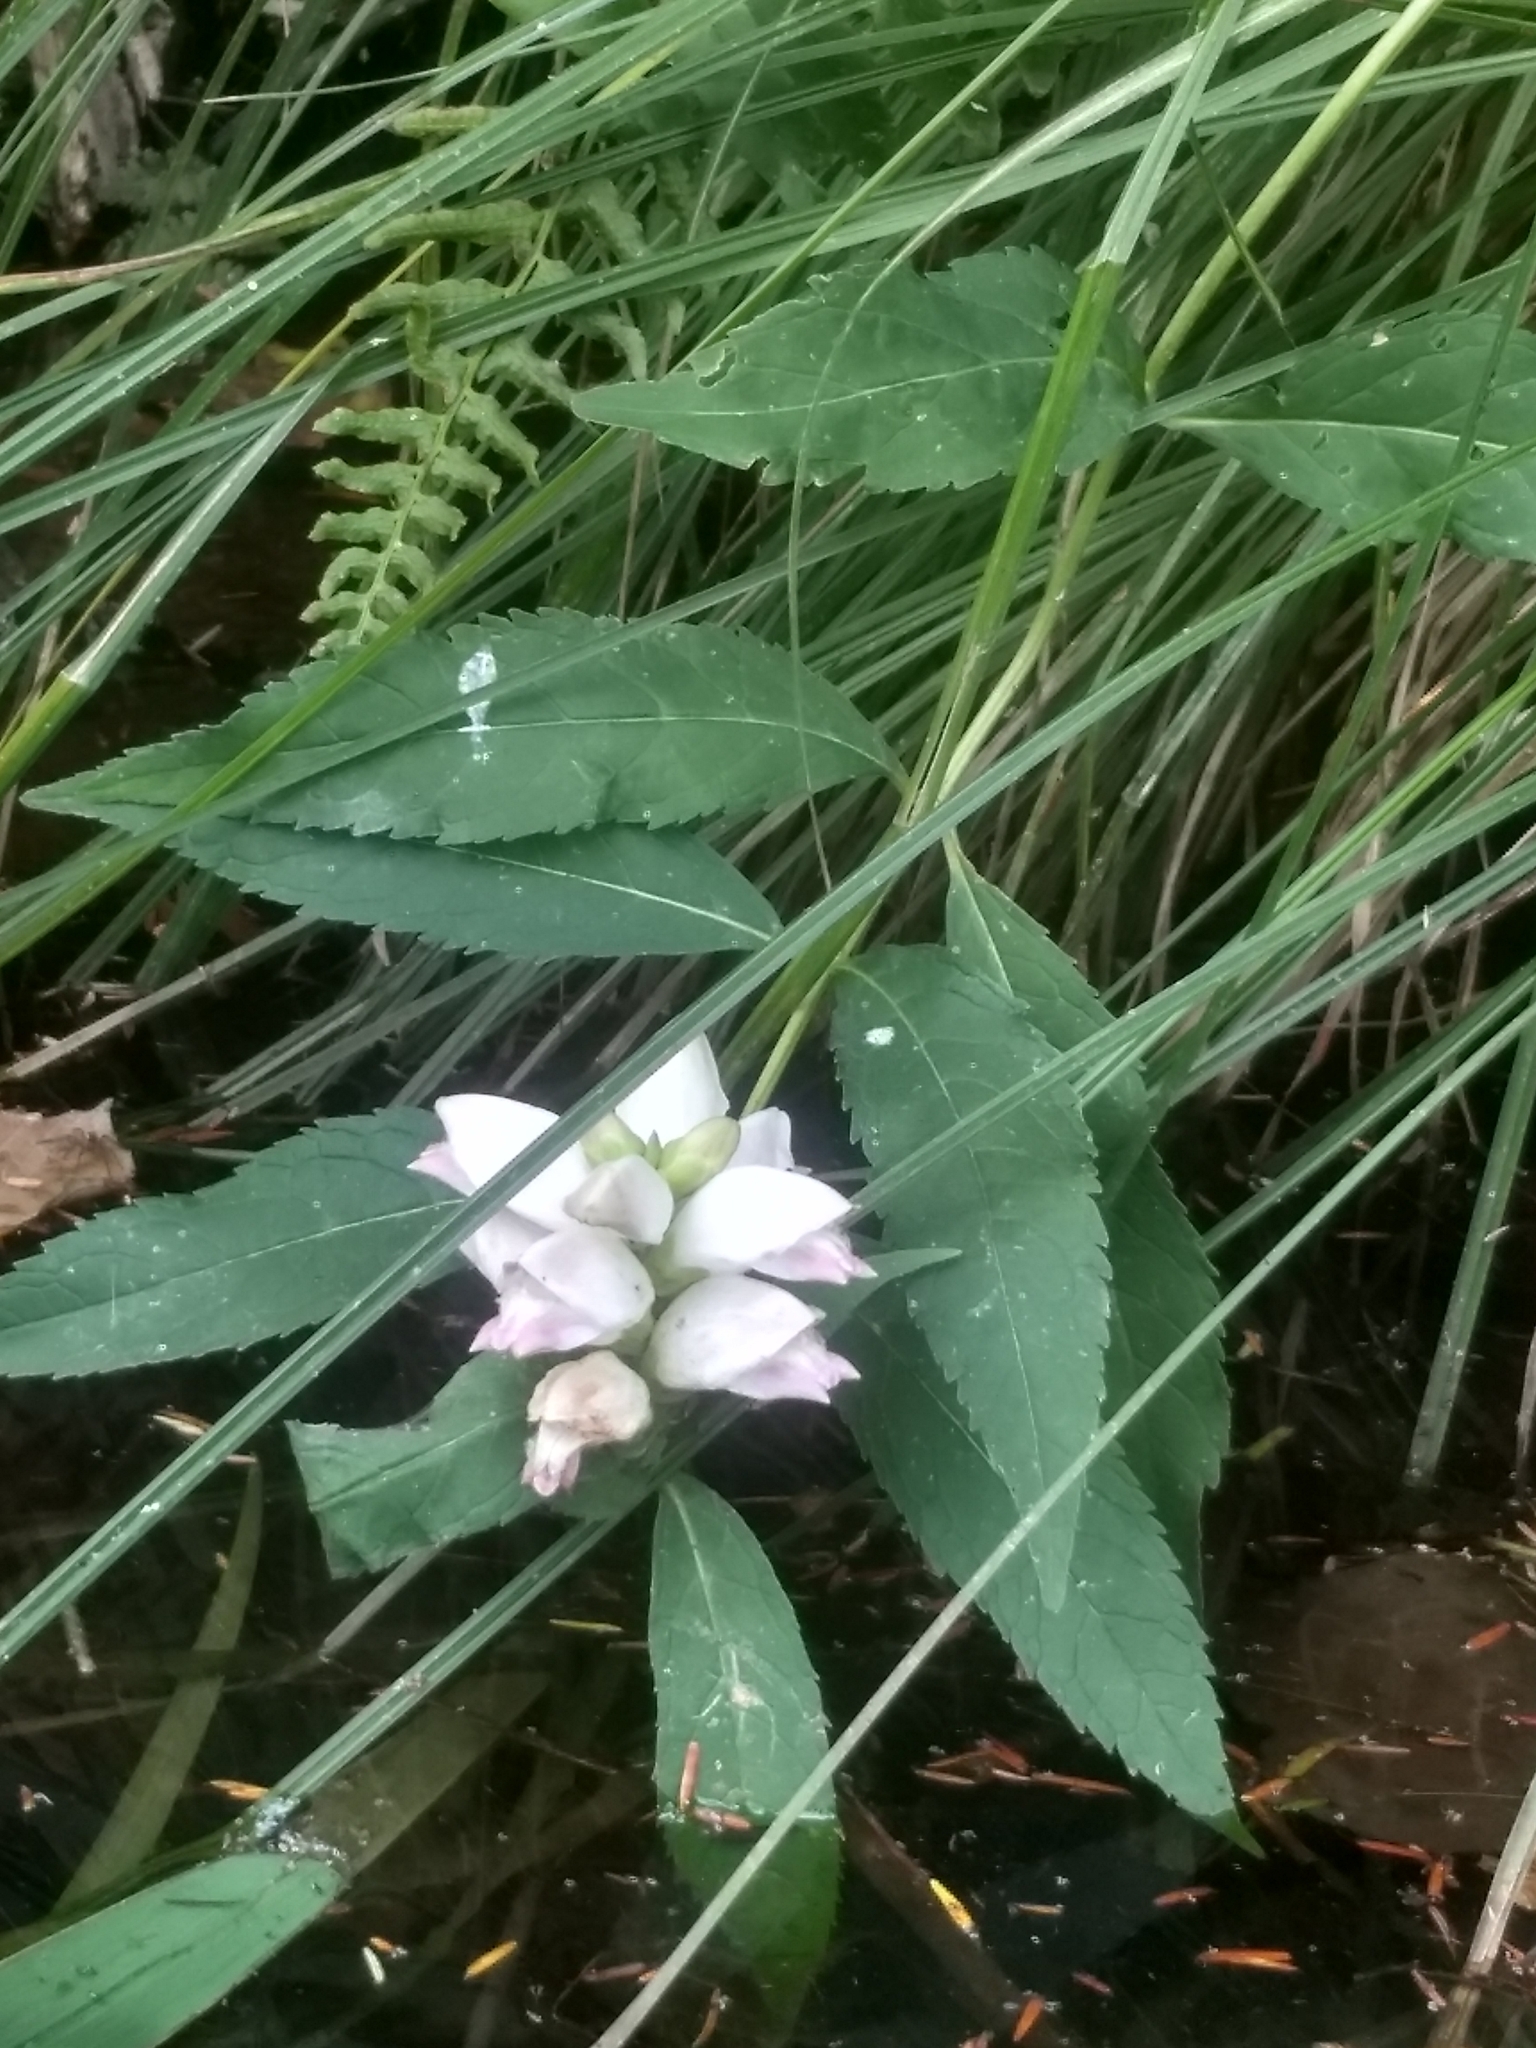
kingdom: Plantae
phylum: Tracheophyta
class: Magnoliopsida
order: Lamiales
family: Plantaginaceae
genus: Chelone
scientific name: Chelone glabra
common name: Snakehead
